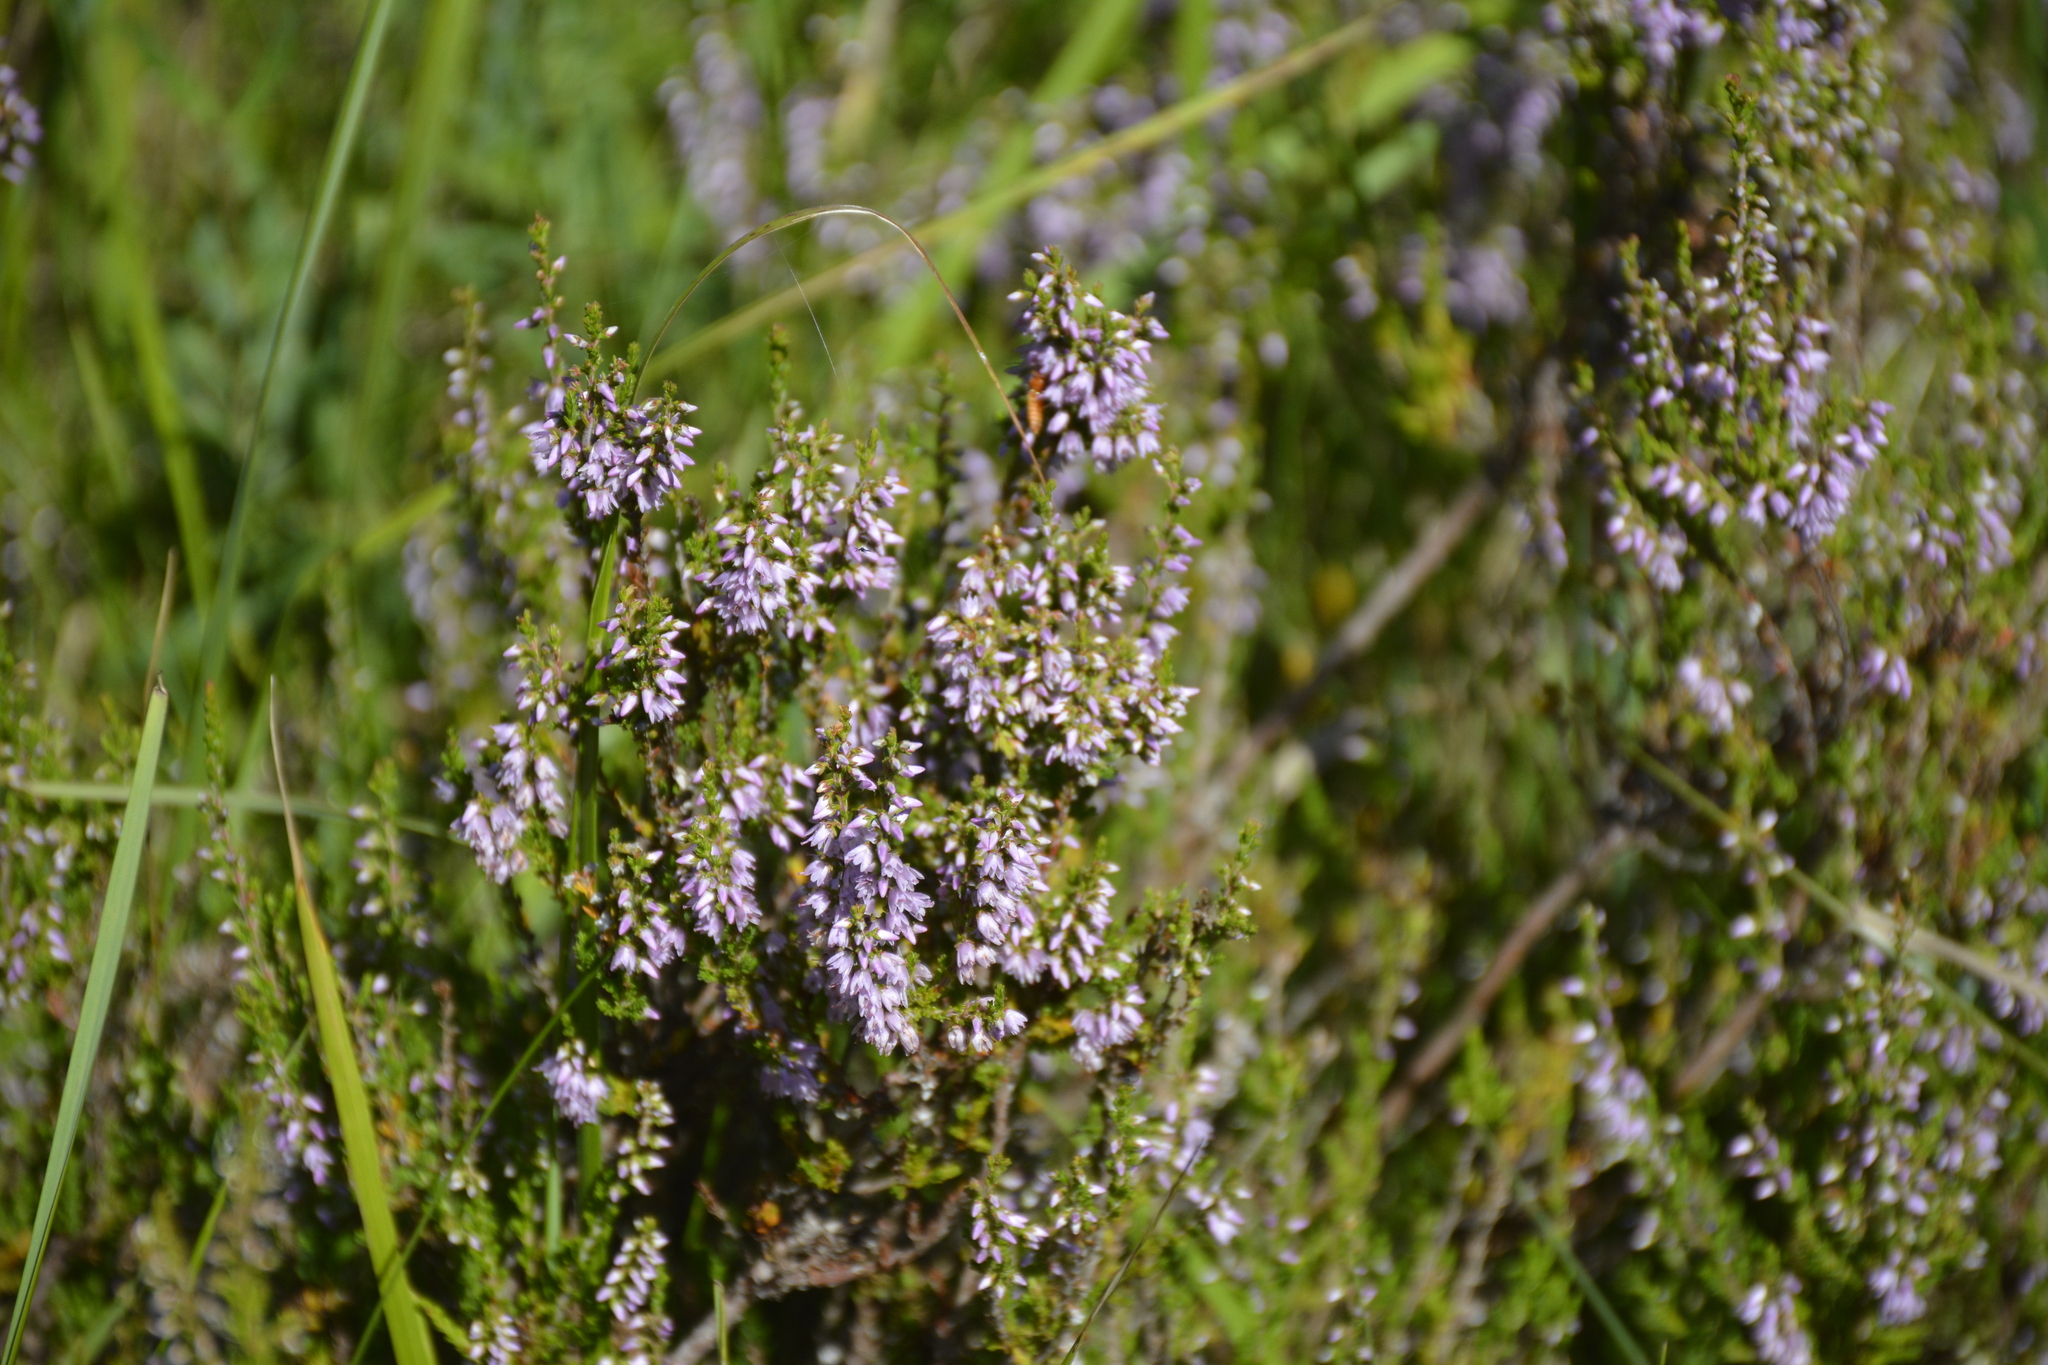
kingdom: Plantae
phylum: Tracheophyta
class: Magnoliopsida
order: Ericales
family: Ericaceae
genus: Calluna
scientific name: Calluna vulgaris
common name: Heather
